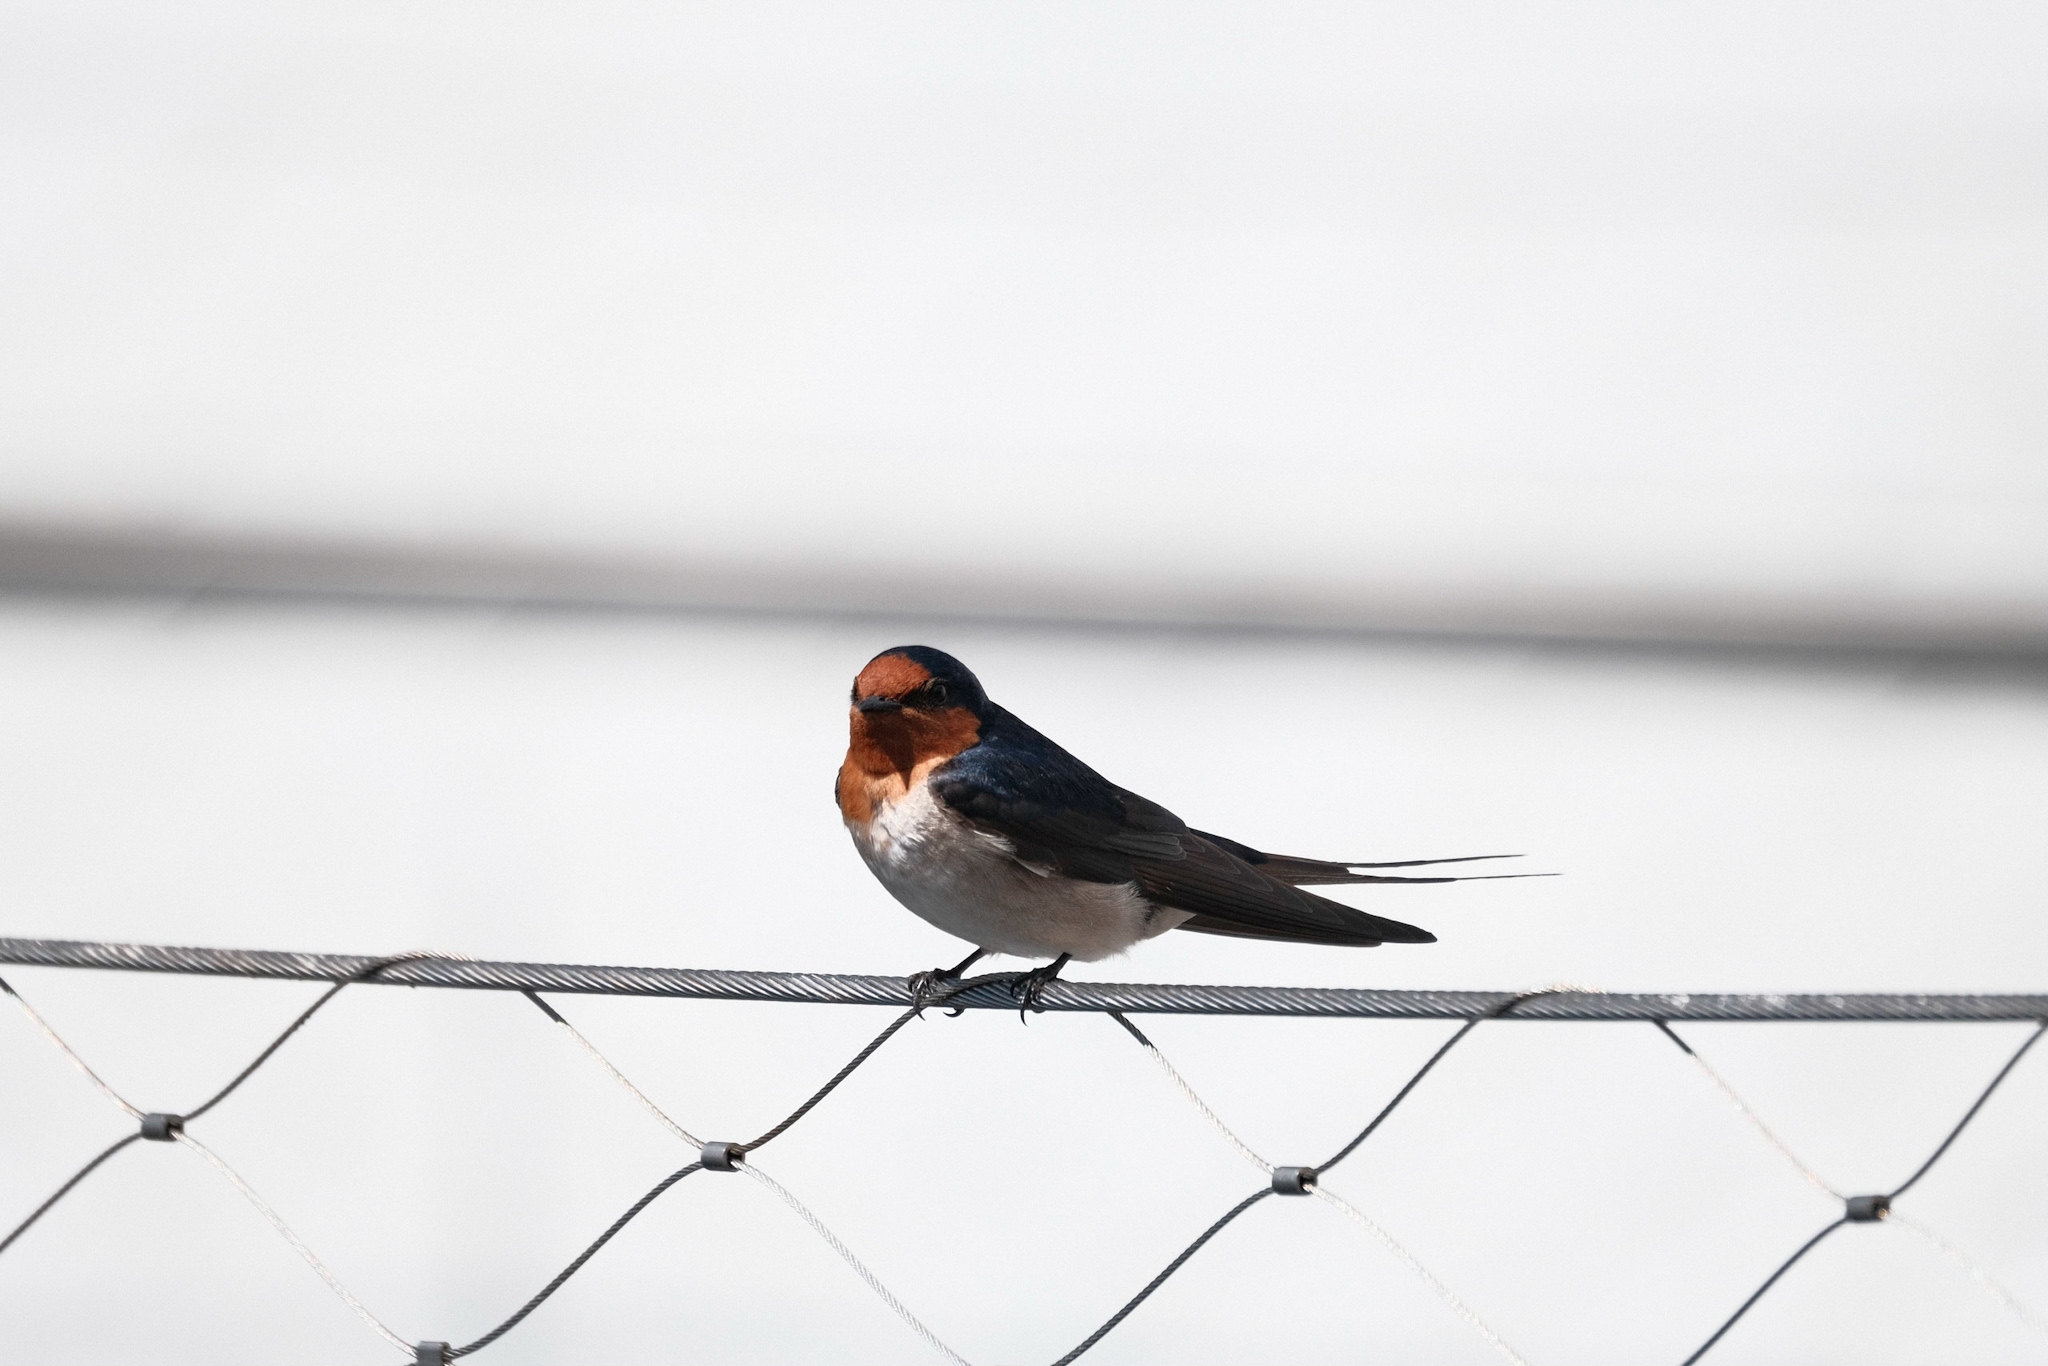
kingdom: Animalia
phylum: Chordata
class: Aves
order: Passeriformes
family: Hirundinidae
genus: Hirundo
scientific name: Hirundo neoxena
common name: Welcome swallow
